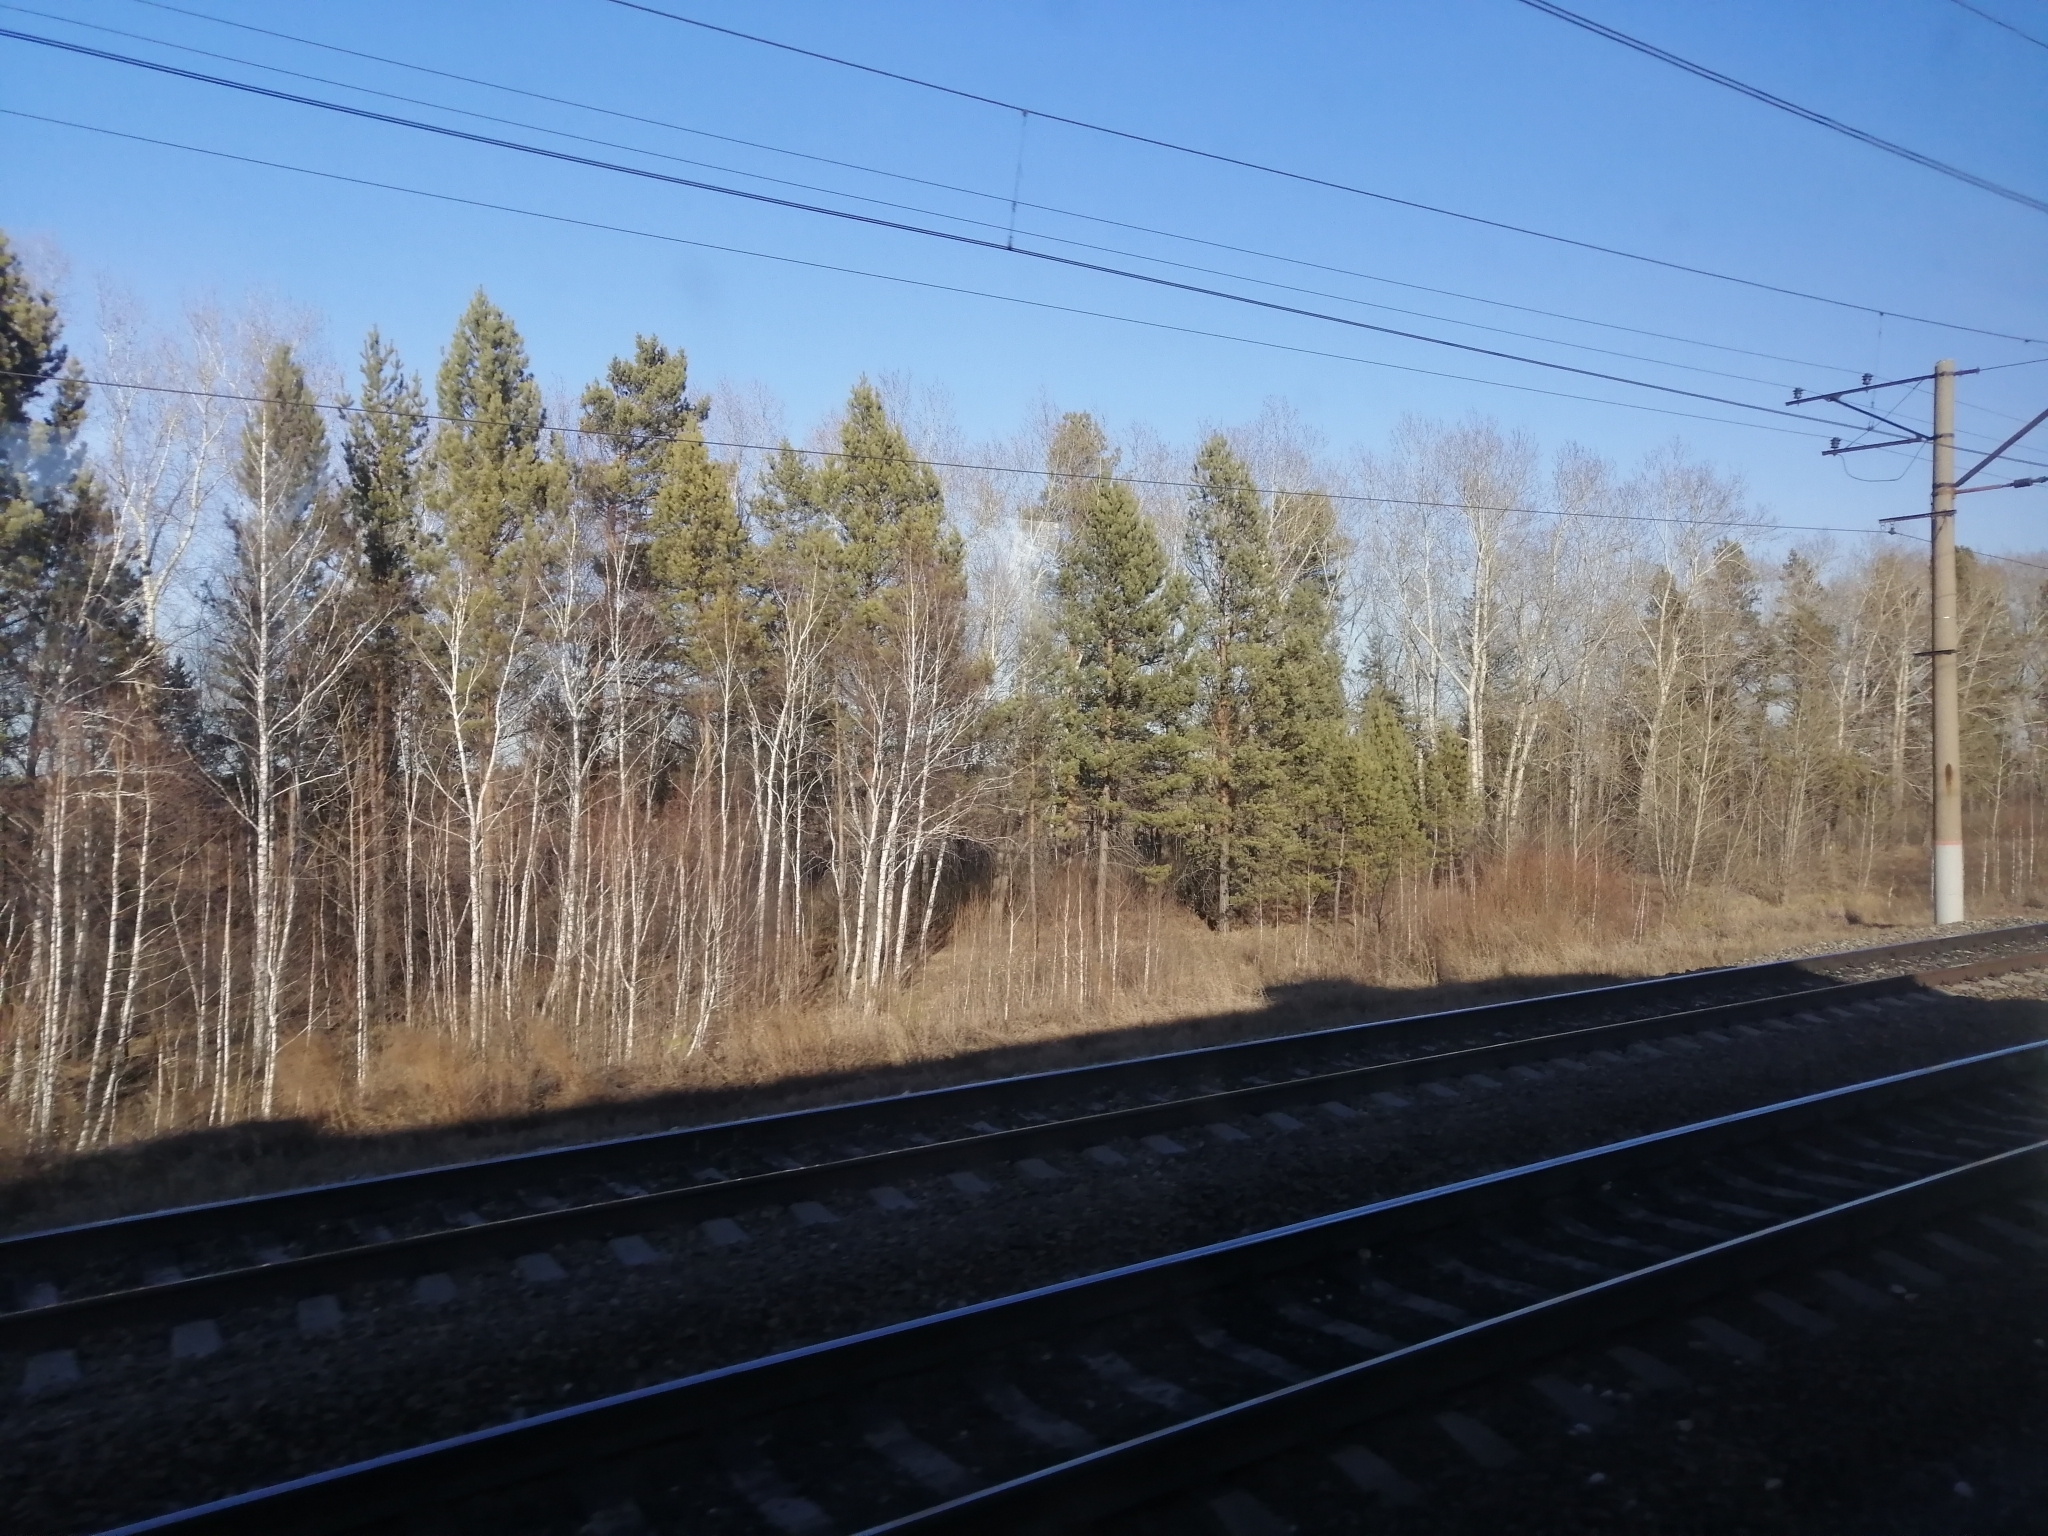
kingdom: Plantae
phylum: Tracheophyta
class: Pinopsida
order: Pinales
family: Pinaceae
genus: Pinus
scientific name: Pinus sylvestris
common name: Scots pine
